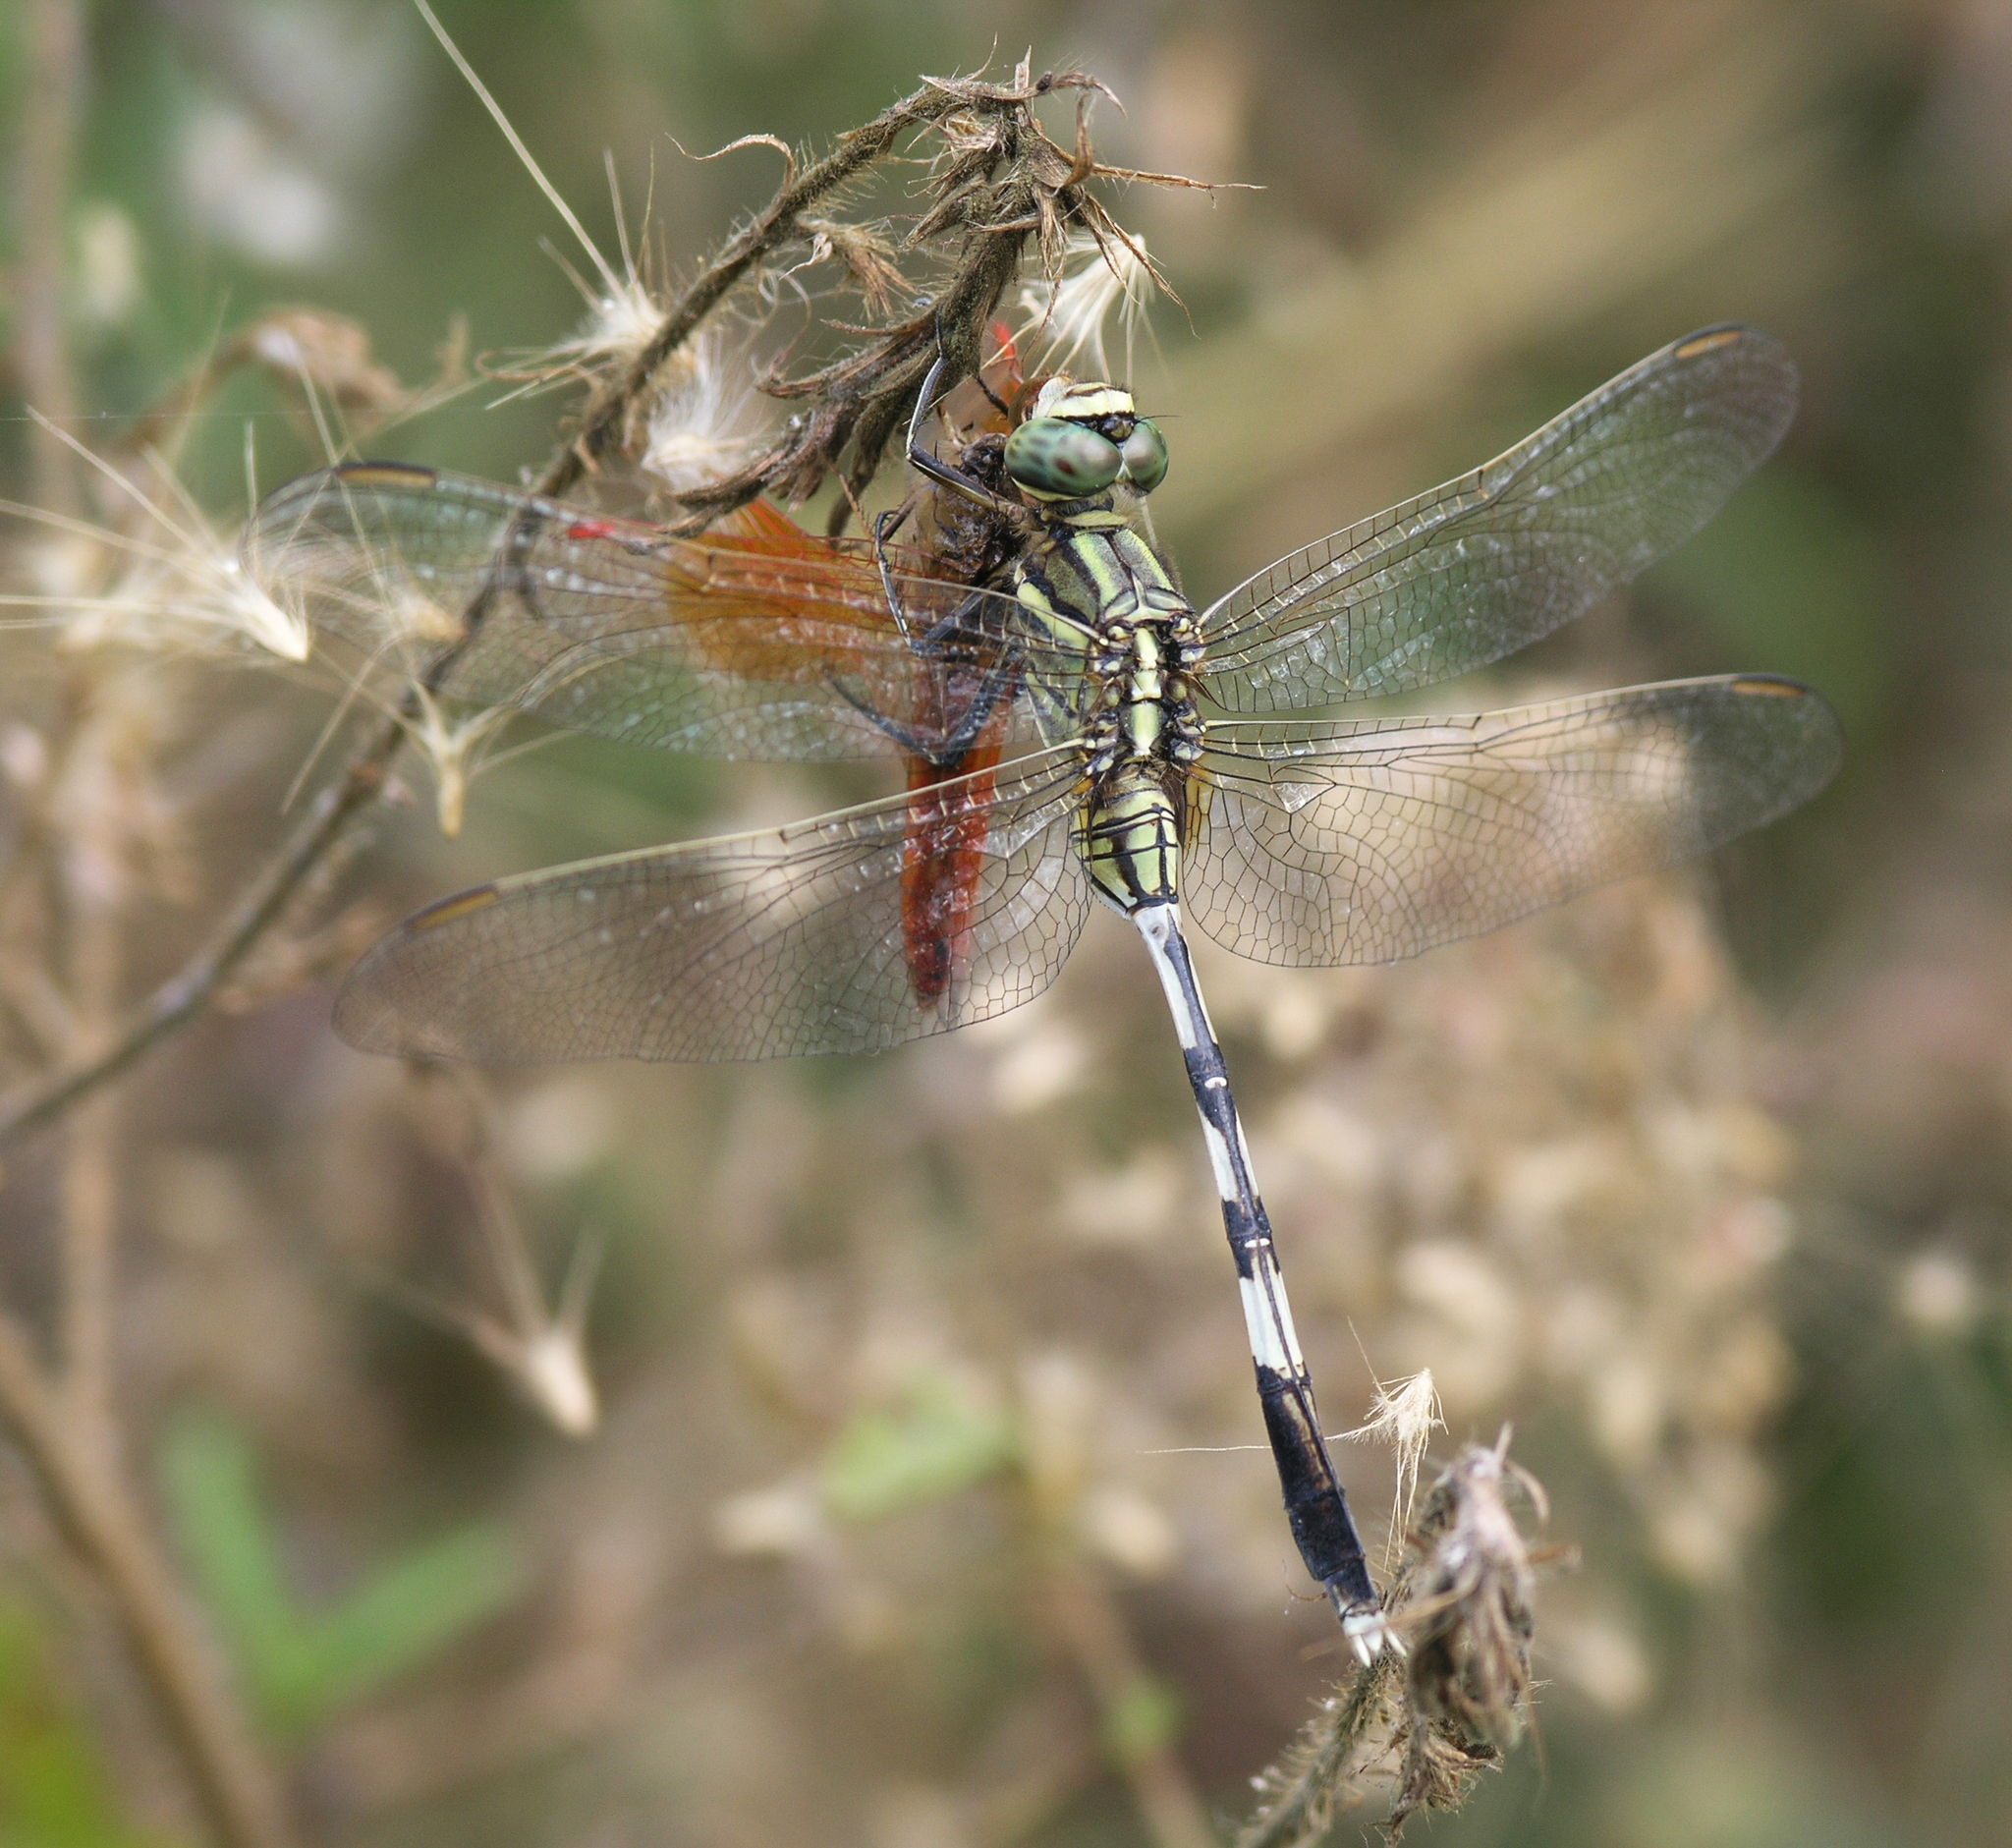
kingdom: Animalia
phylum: Arthropoda
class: Insecta
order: Odonata
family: Libellulidae
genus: Orthetrum
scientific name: Orthetrum sabina
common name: Slender skimmer
